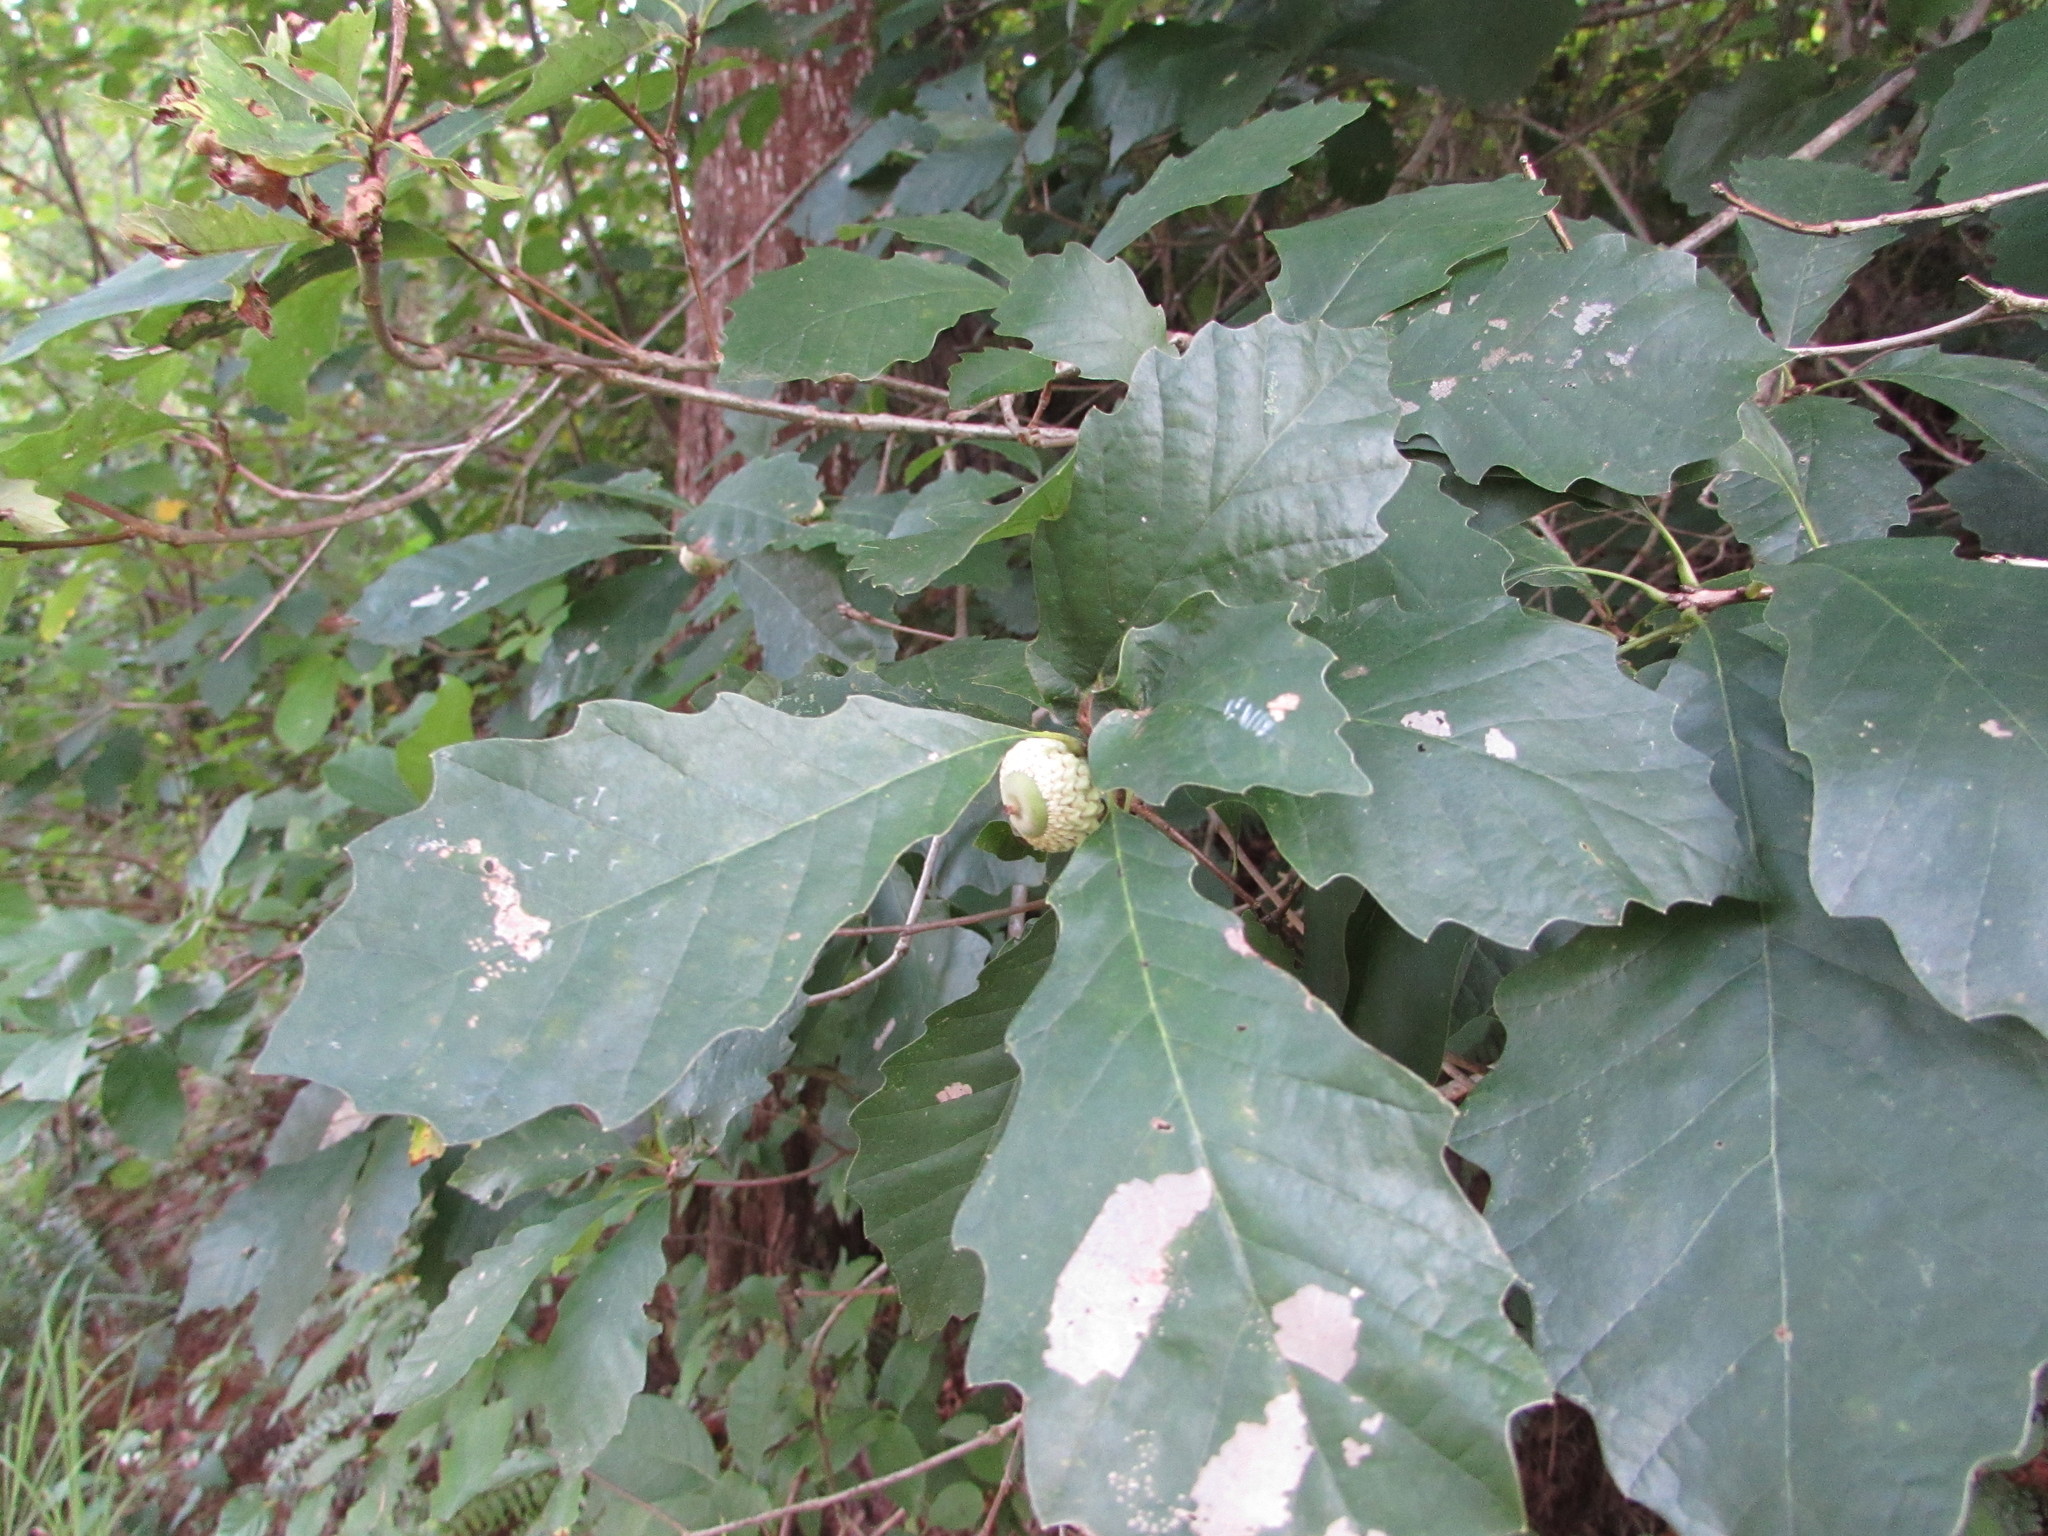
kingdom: Plantae
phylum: Tracheophyta
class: Magnoliopsida
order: Fagales
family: Fagaceae
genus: Quercus
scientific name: Quercus prinoides
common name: Dwarf chinkapin oak
